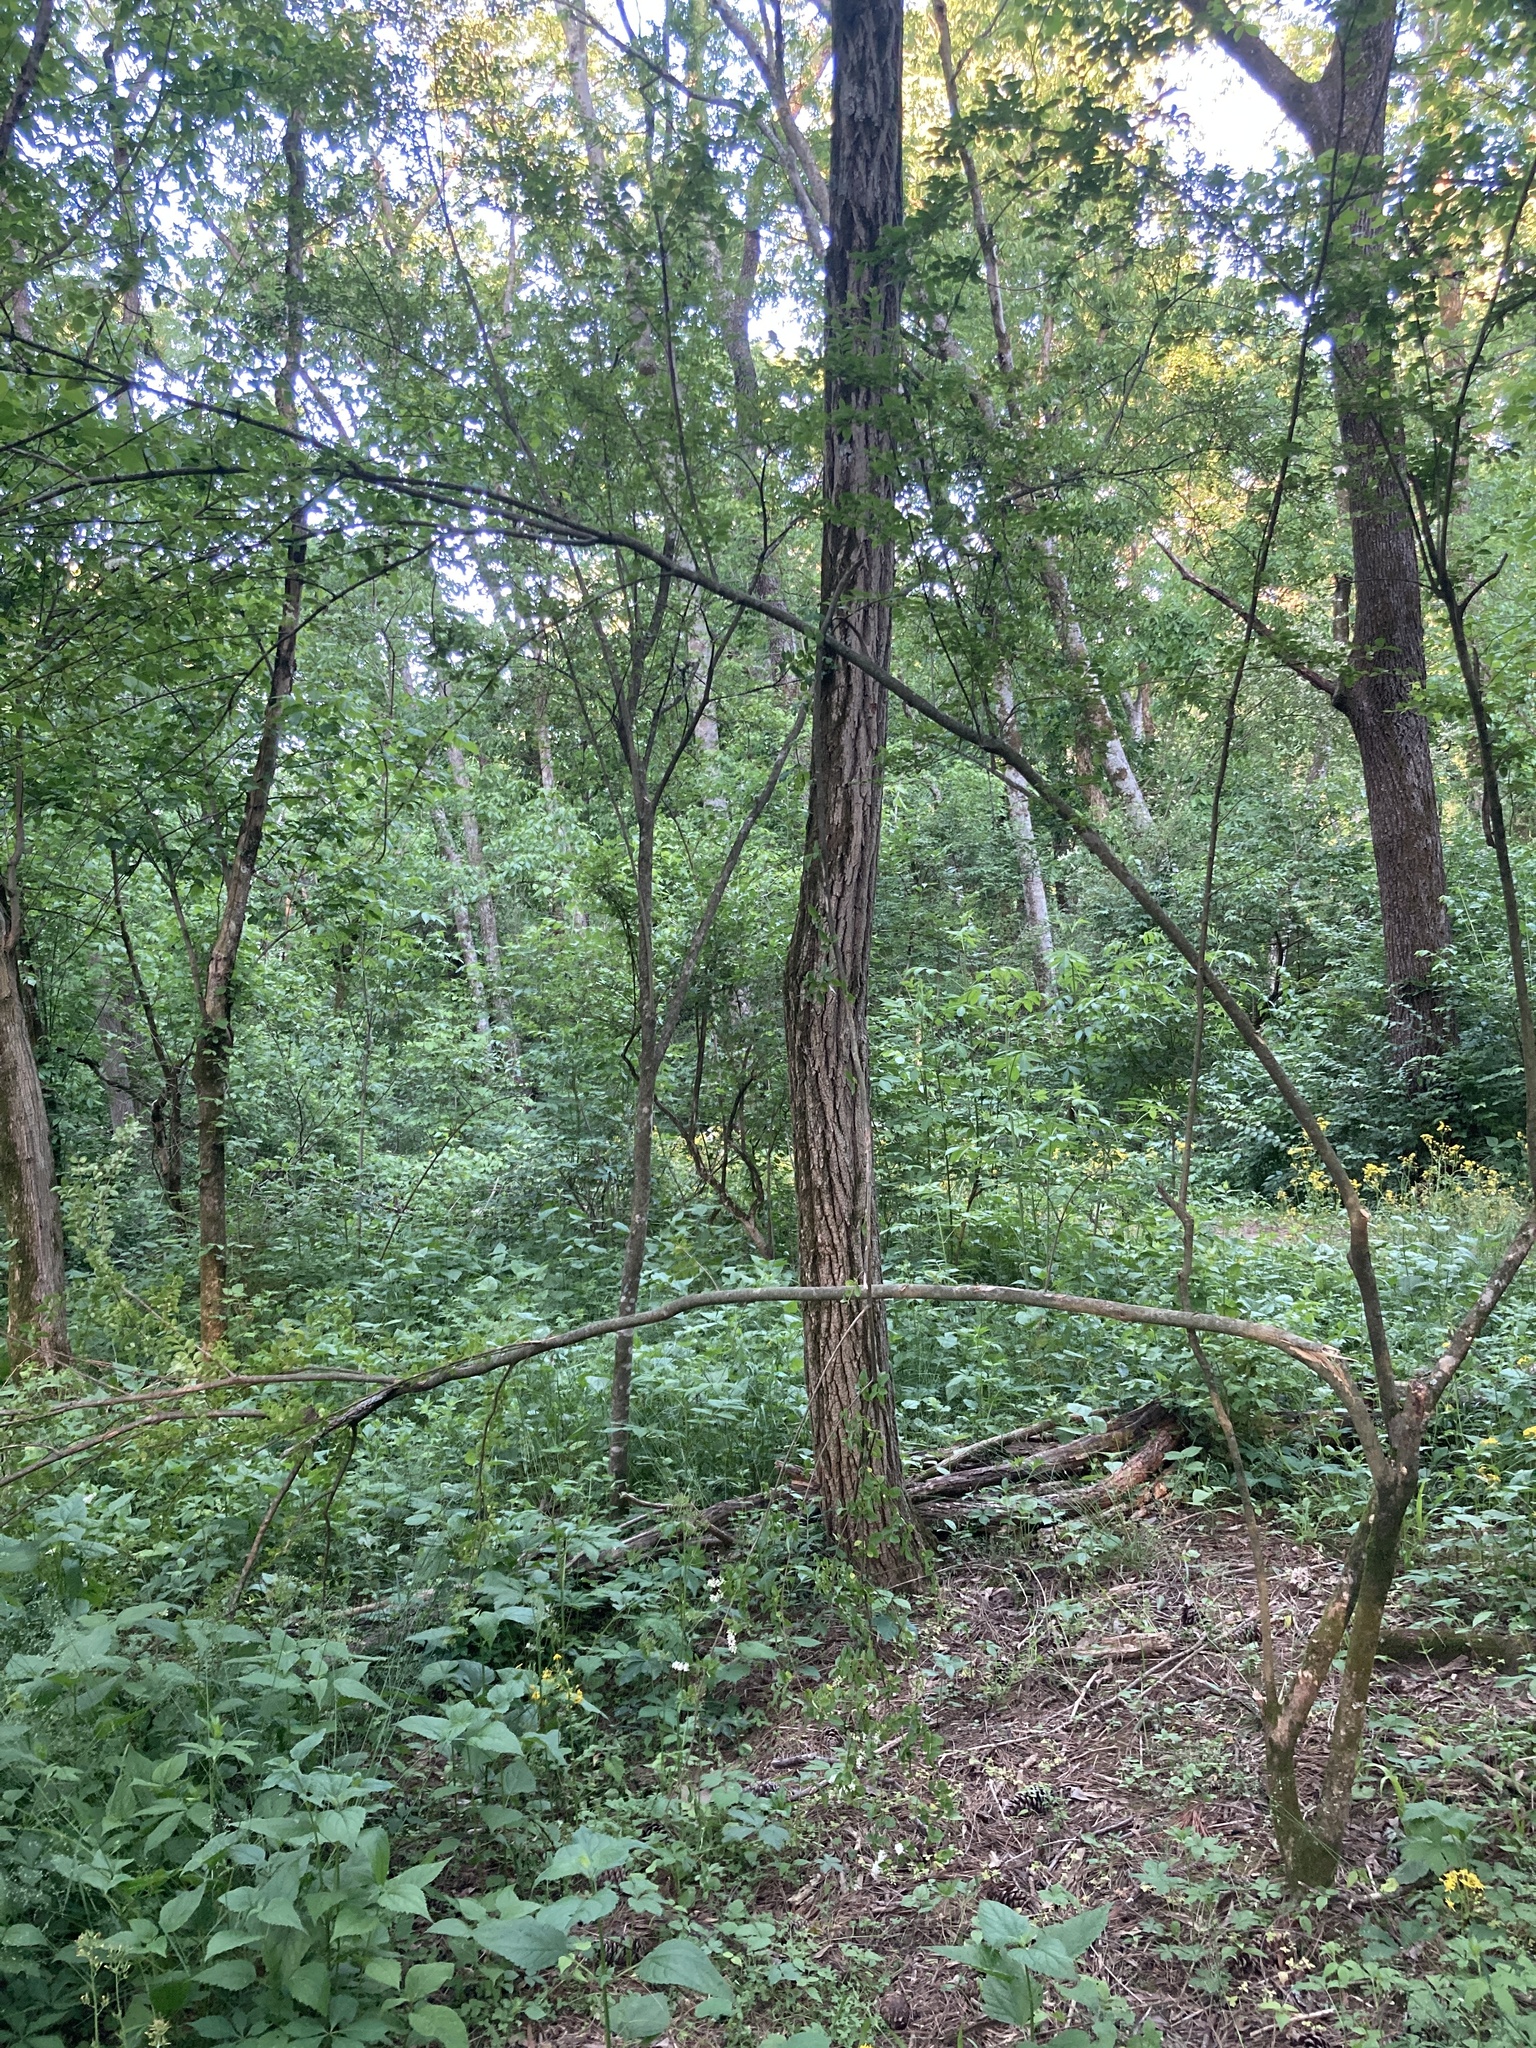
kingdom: Plantae
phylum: Tracheophyta
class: Magnoliopsida
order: Lamiales
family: Oleaceae
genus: Ligustrum
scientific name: Ligustrum sinense
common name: Chinese privet
